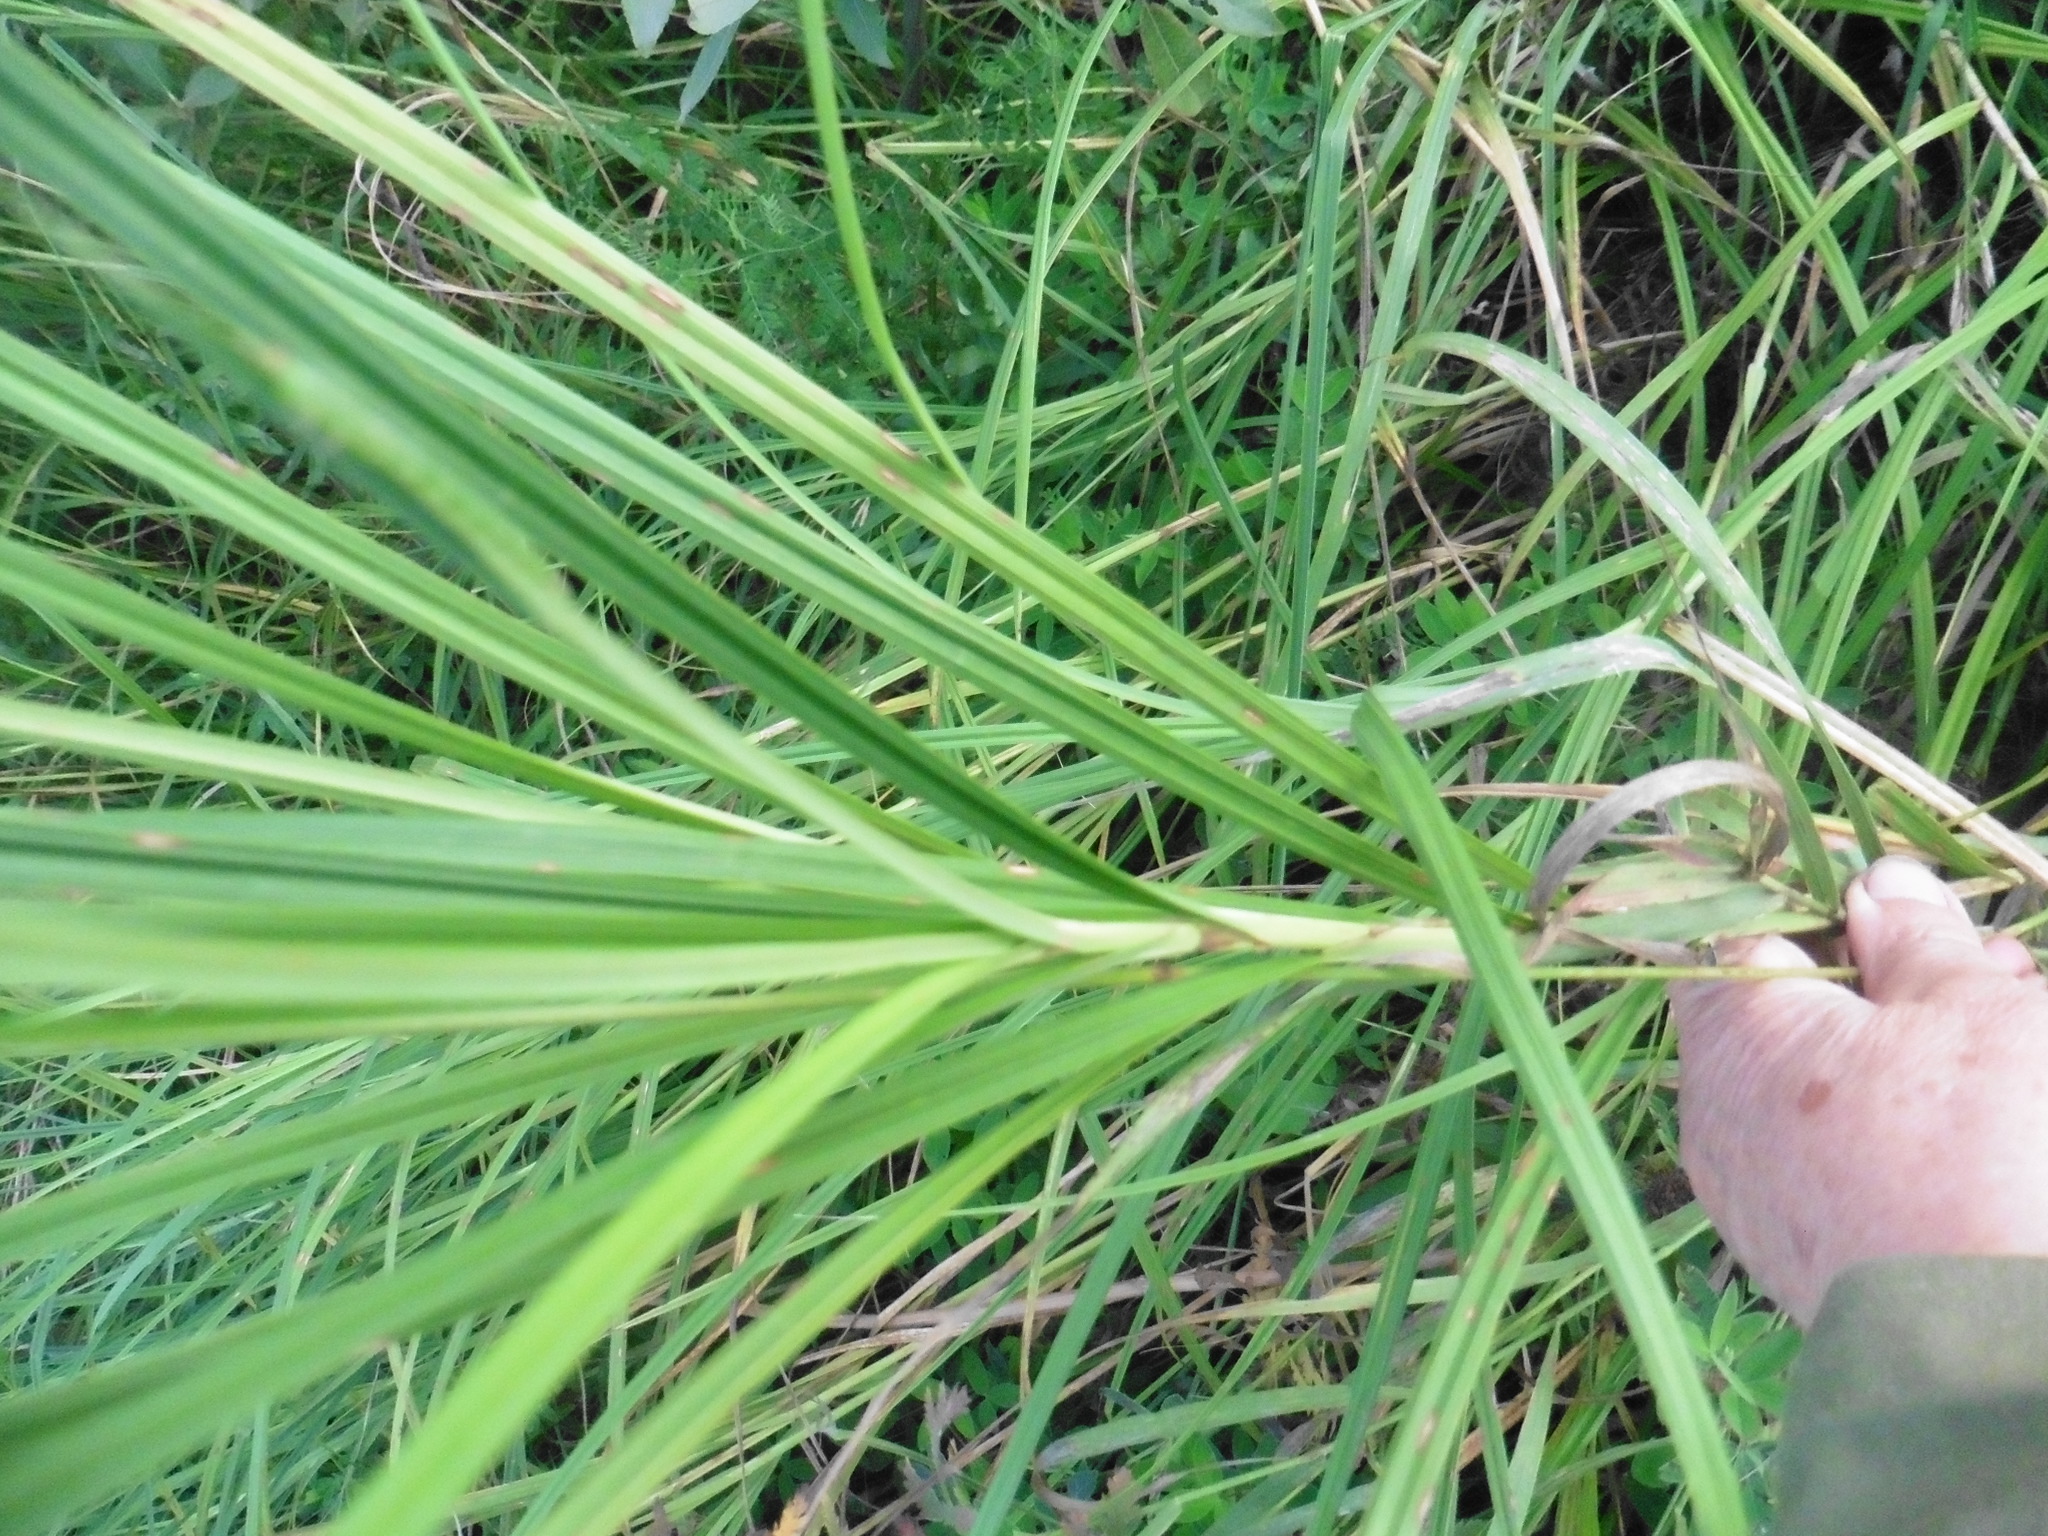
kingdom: Plantae
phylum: Tracheophyta
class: Liliopsida
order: Poales
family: Cyperaceae
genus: Carex
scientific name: Carex atherodes
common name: Wheat sedge
